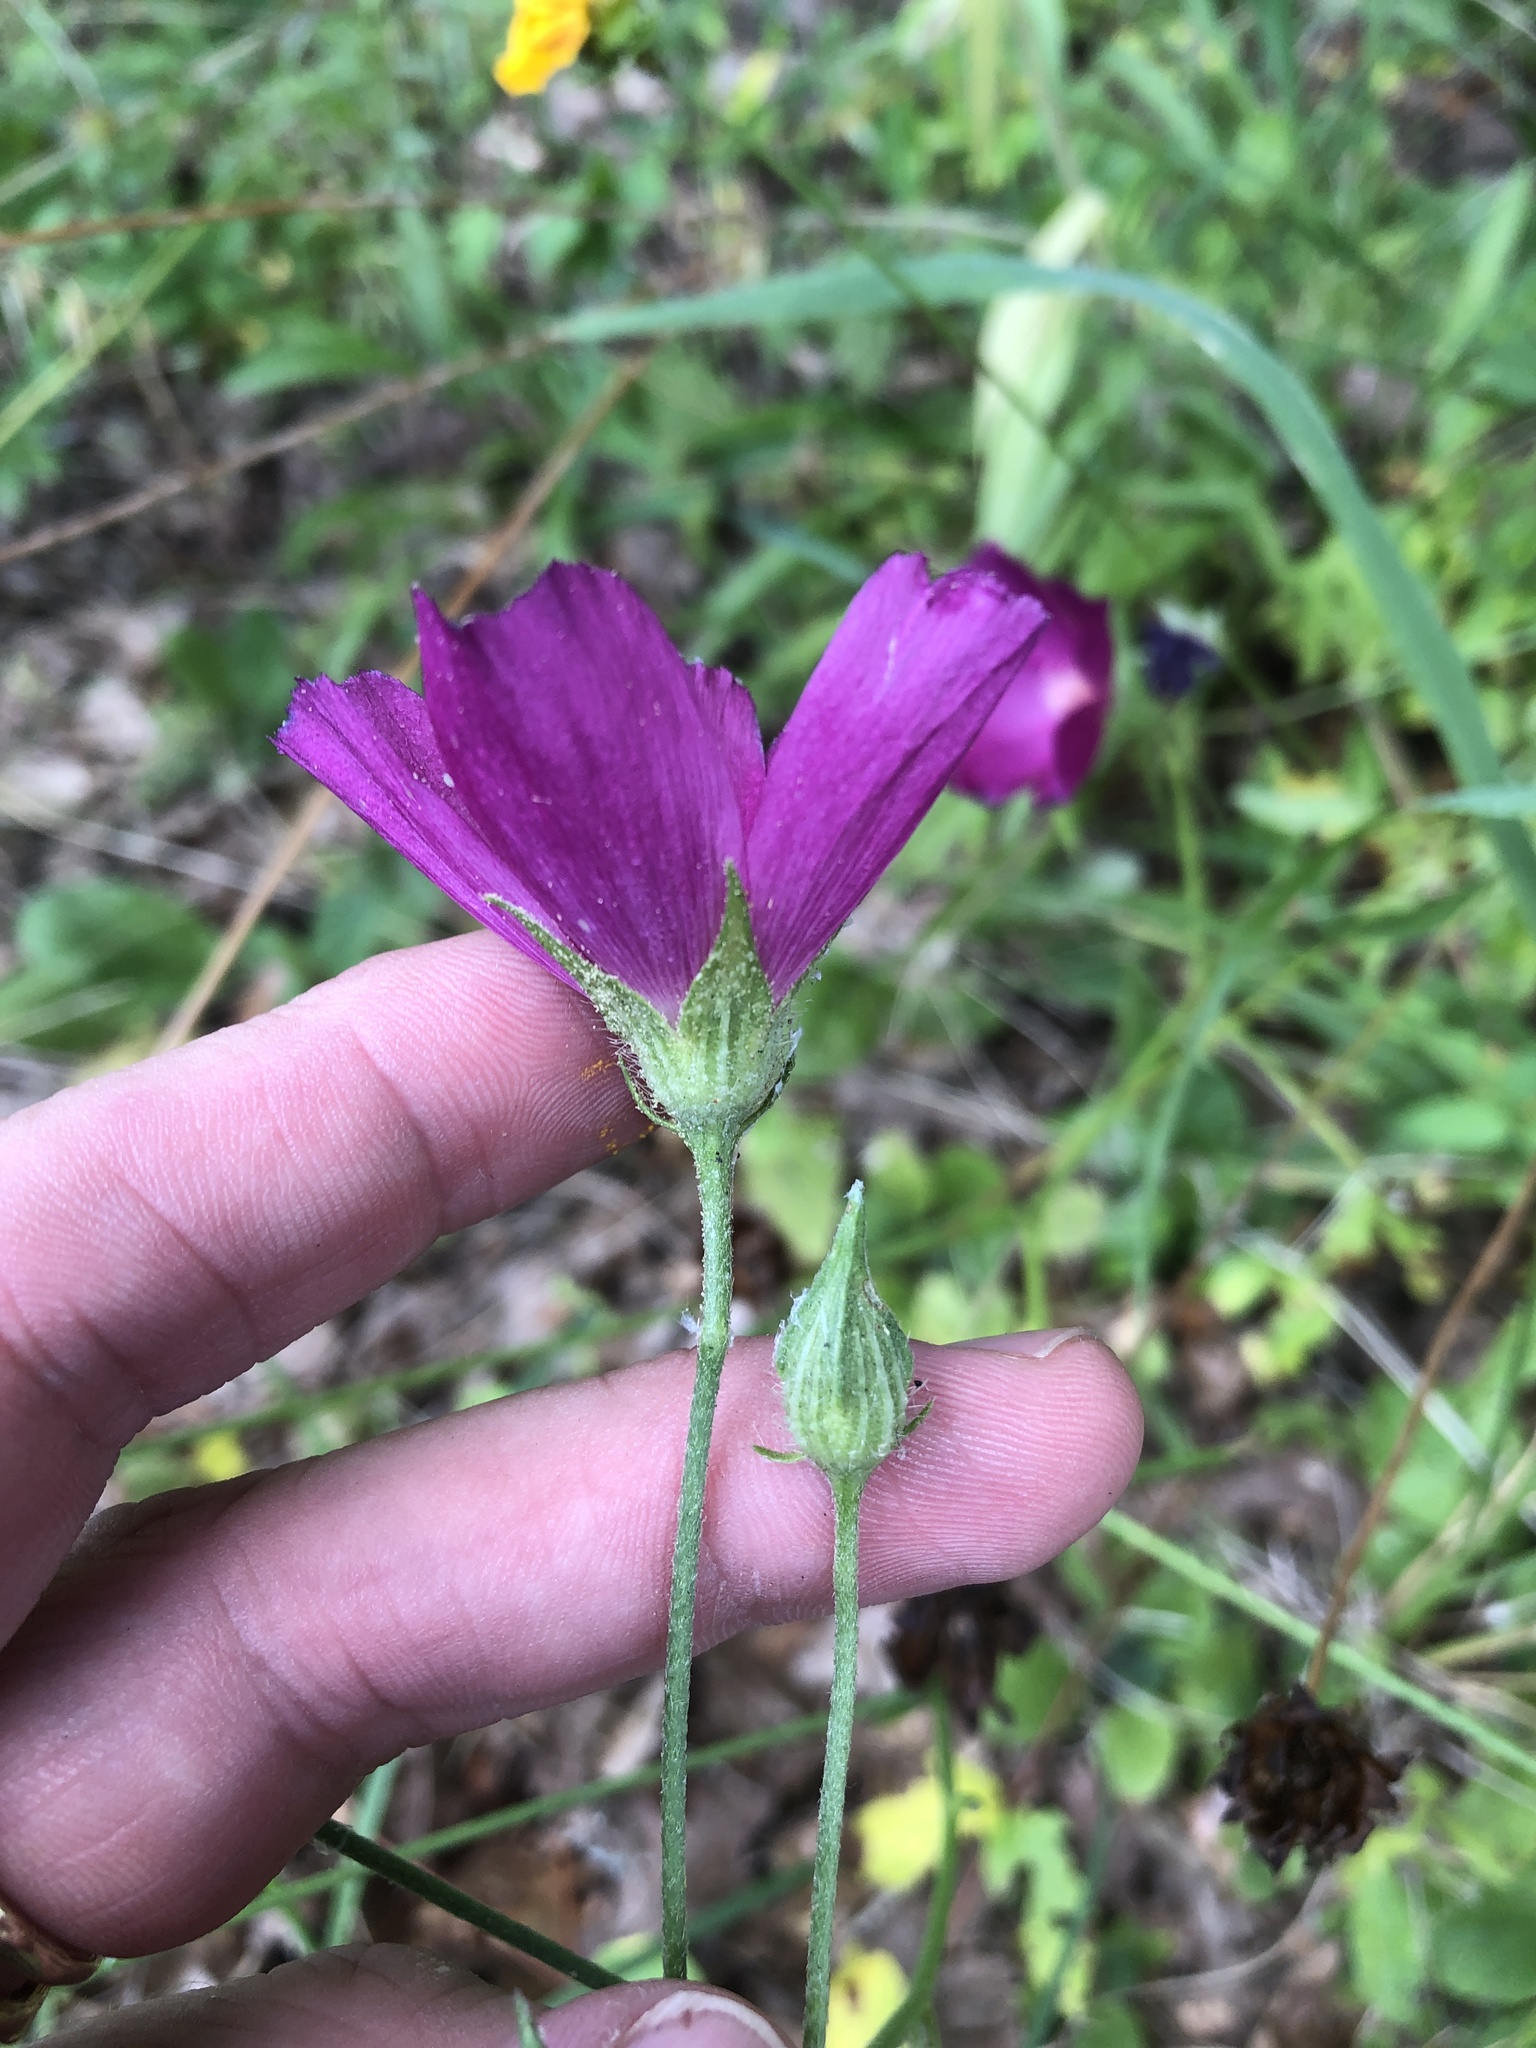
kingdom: Plantae
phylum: Tracheophyta
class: Magnoliopsida
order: Malvales
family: Malvaceae
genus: Callirhoe
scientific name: Callirhoe papaver
